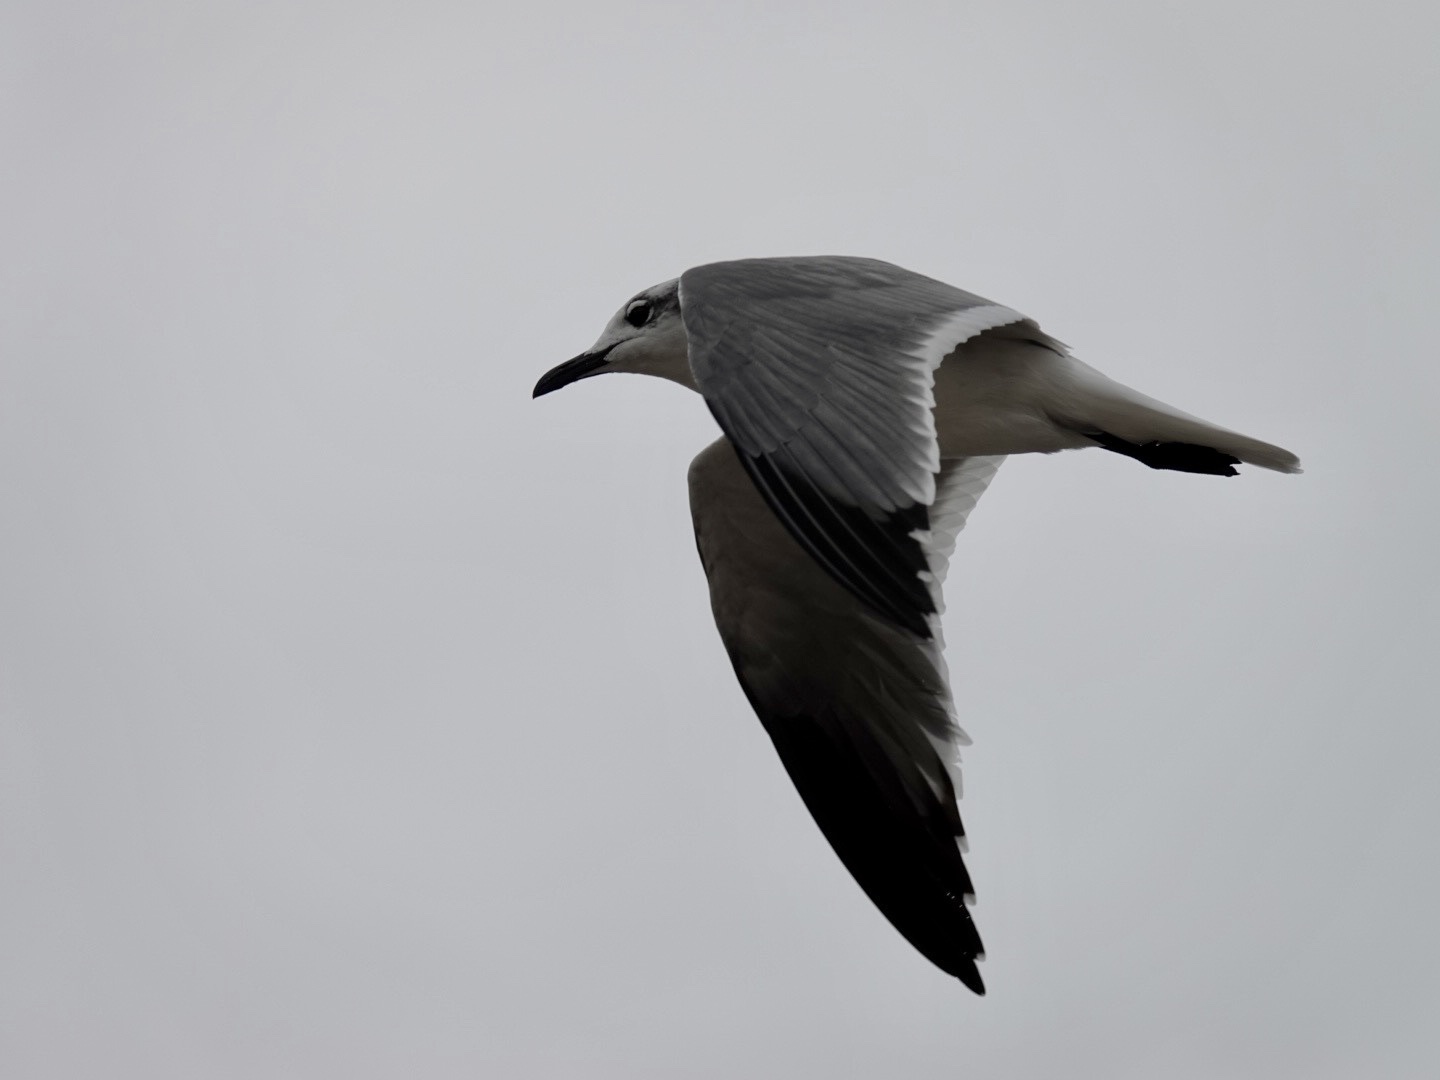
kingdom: Animalia
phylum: Chordata
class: Aves
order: Charadriiformes
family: Laridae
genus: Leucophaeus
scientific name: Leucophaeus atricilla
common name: Laughing gull
